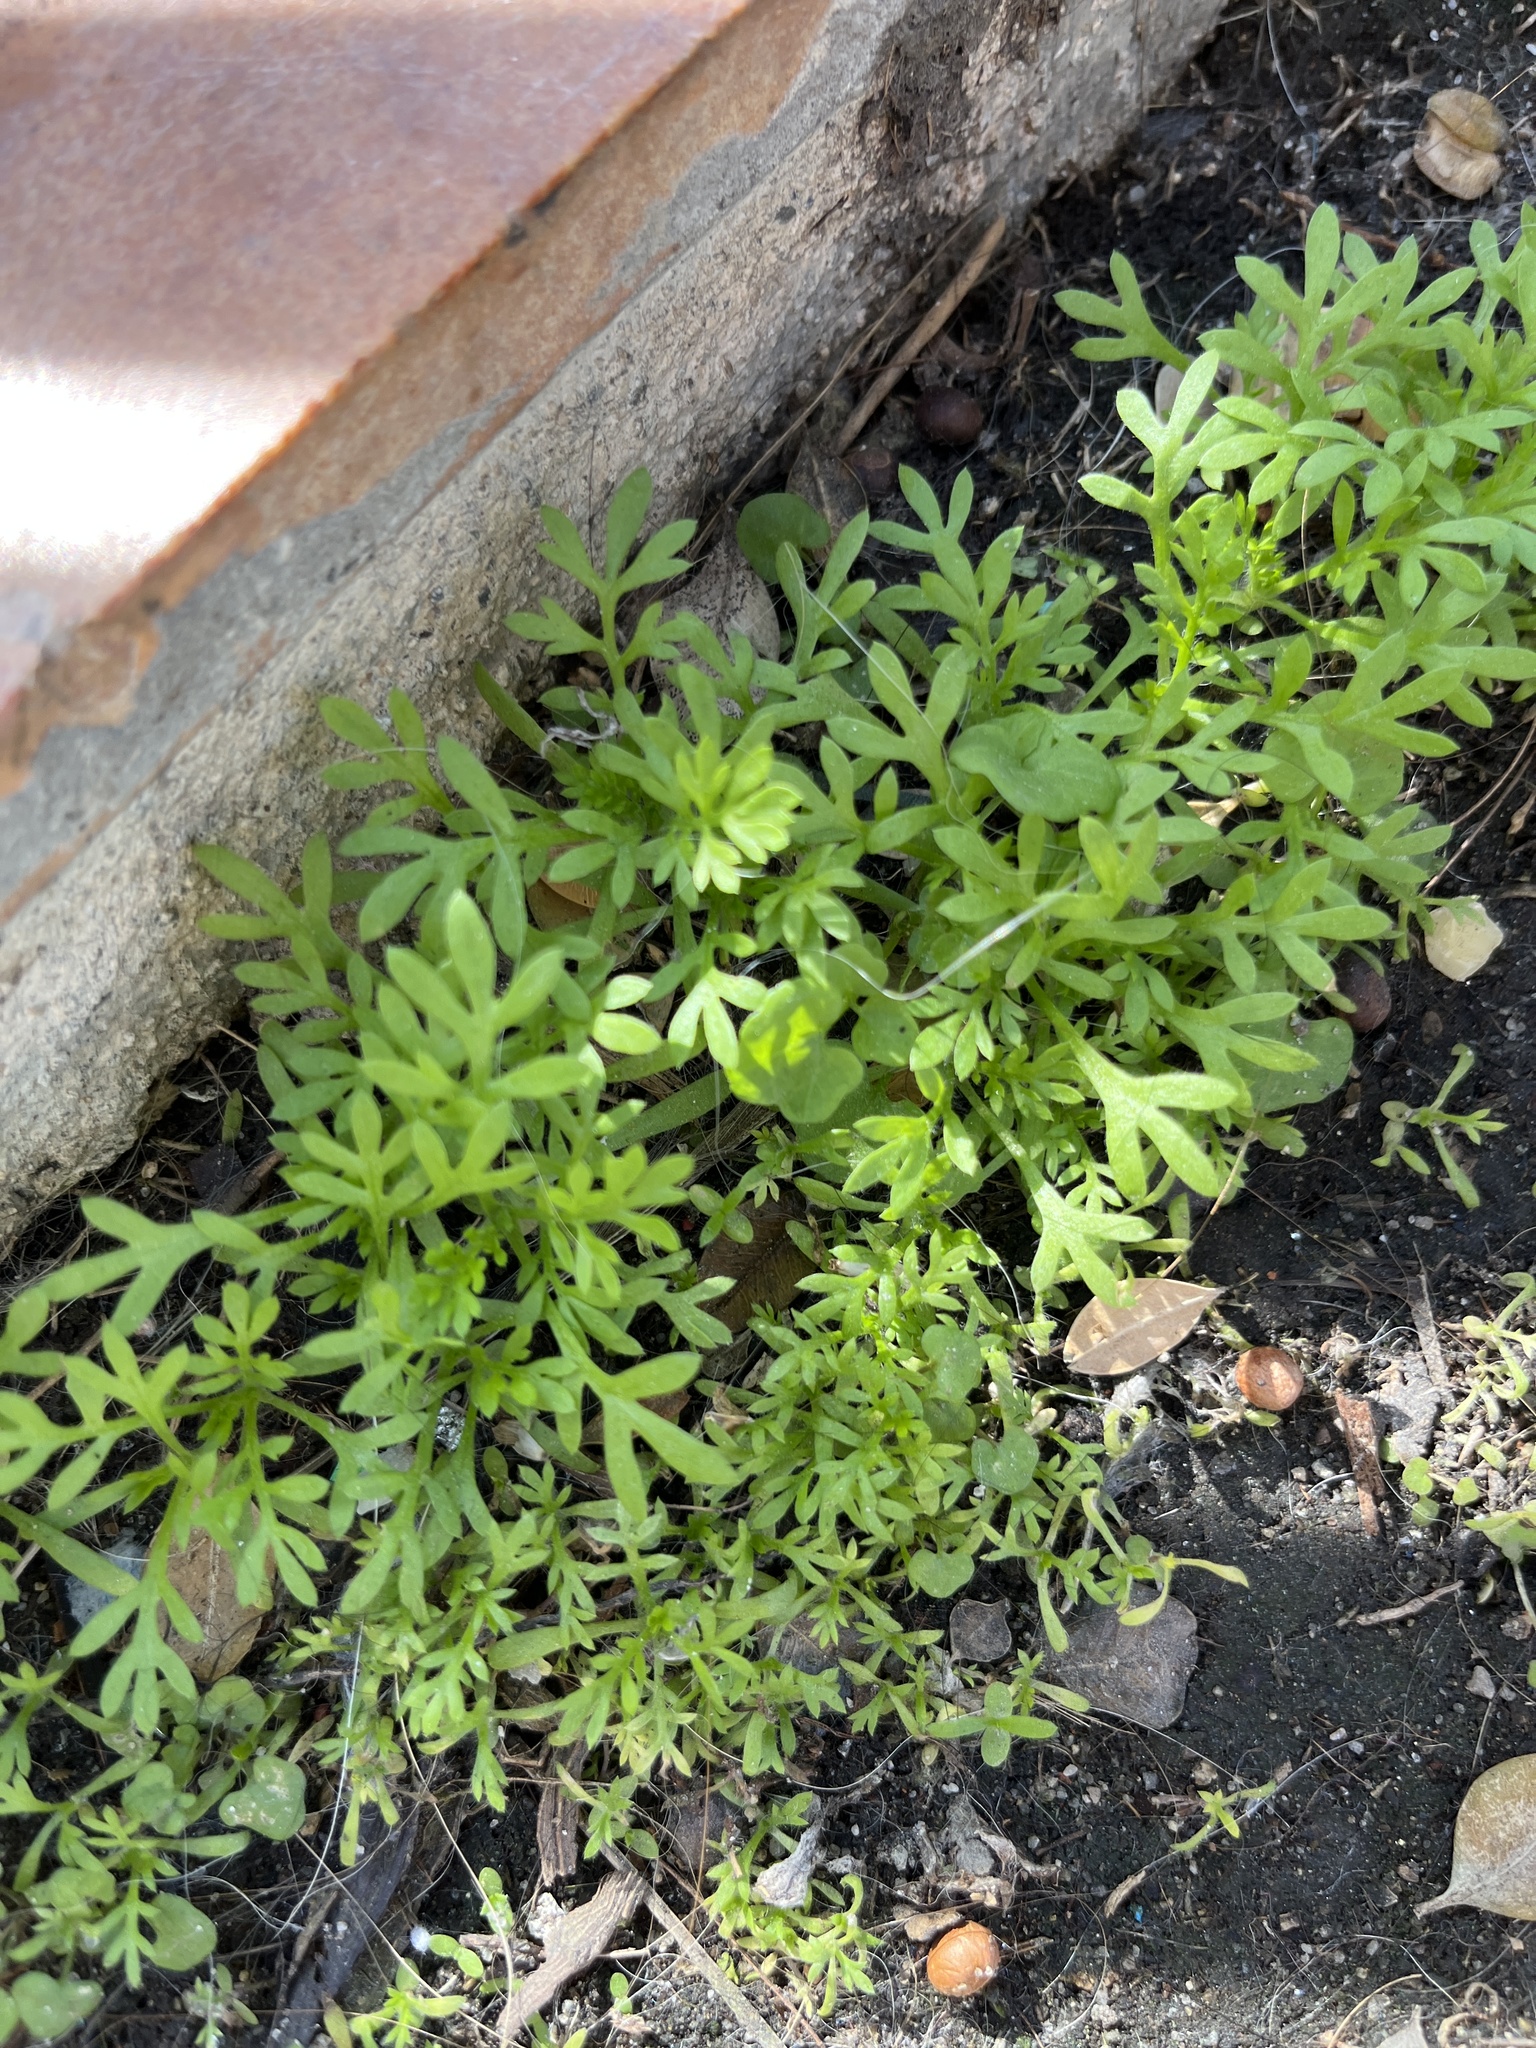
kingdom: Plantae
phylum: Tracheophyta
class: Magnoliopsida
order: Brassicales
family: Brassicaceae
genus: Lepidium
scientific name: Lepidium didymum
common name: Lesser swinecress
